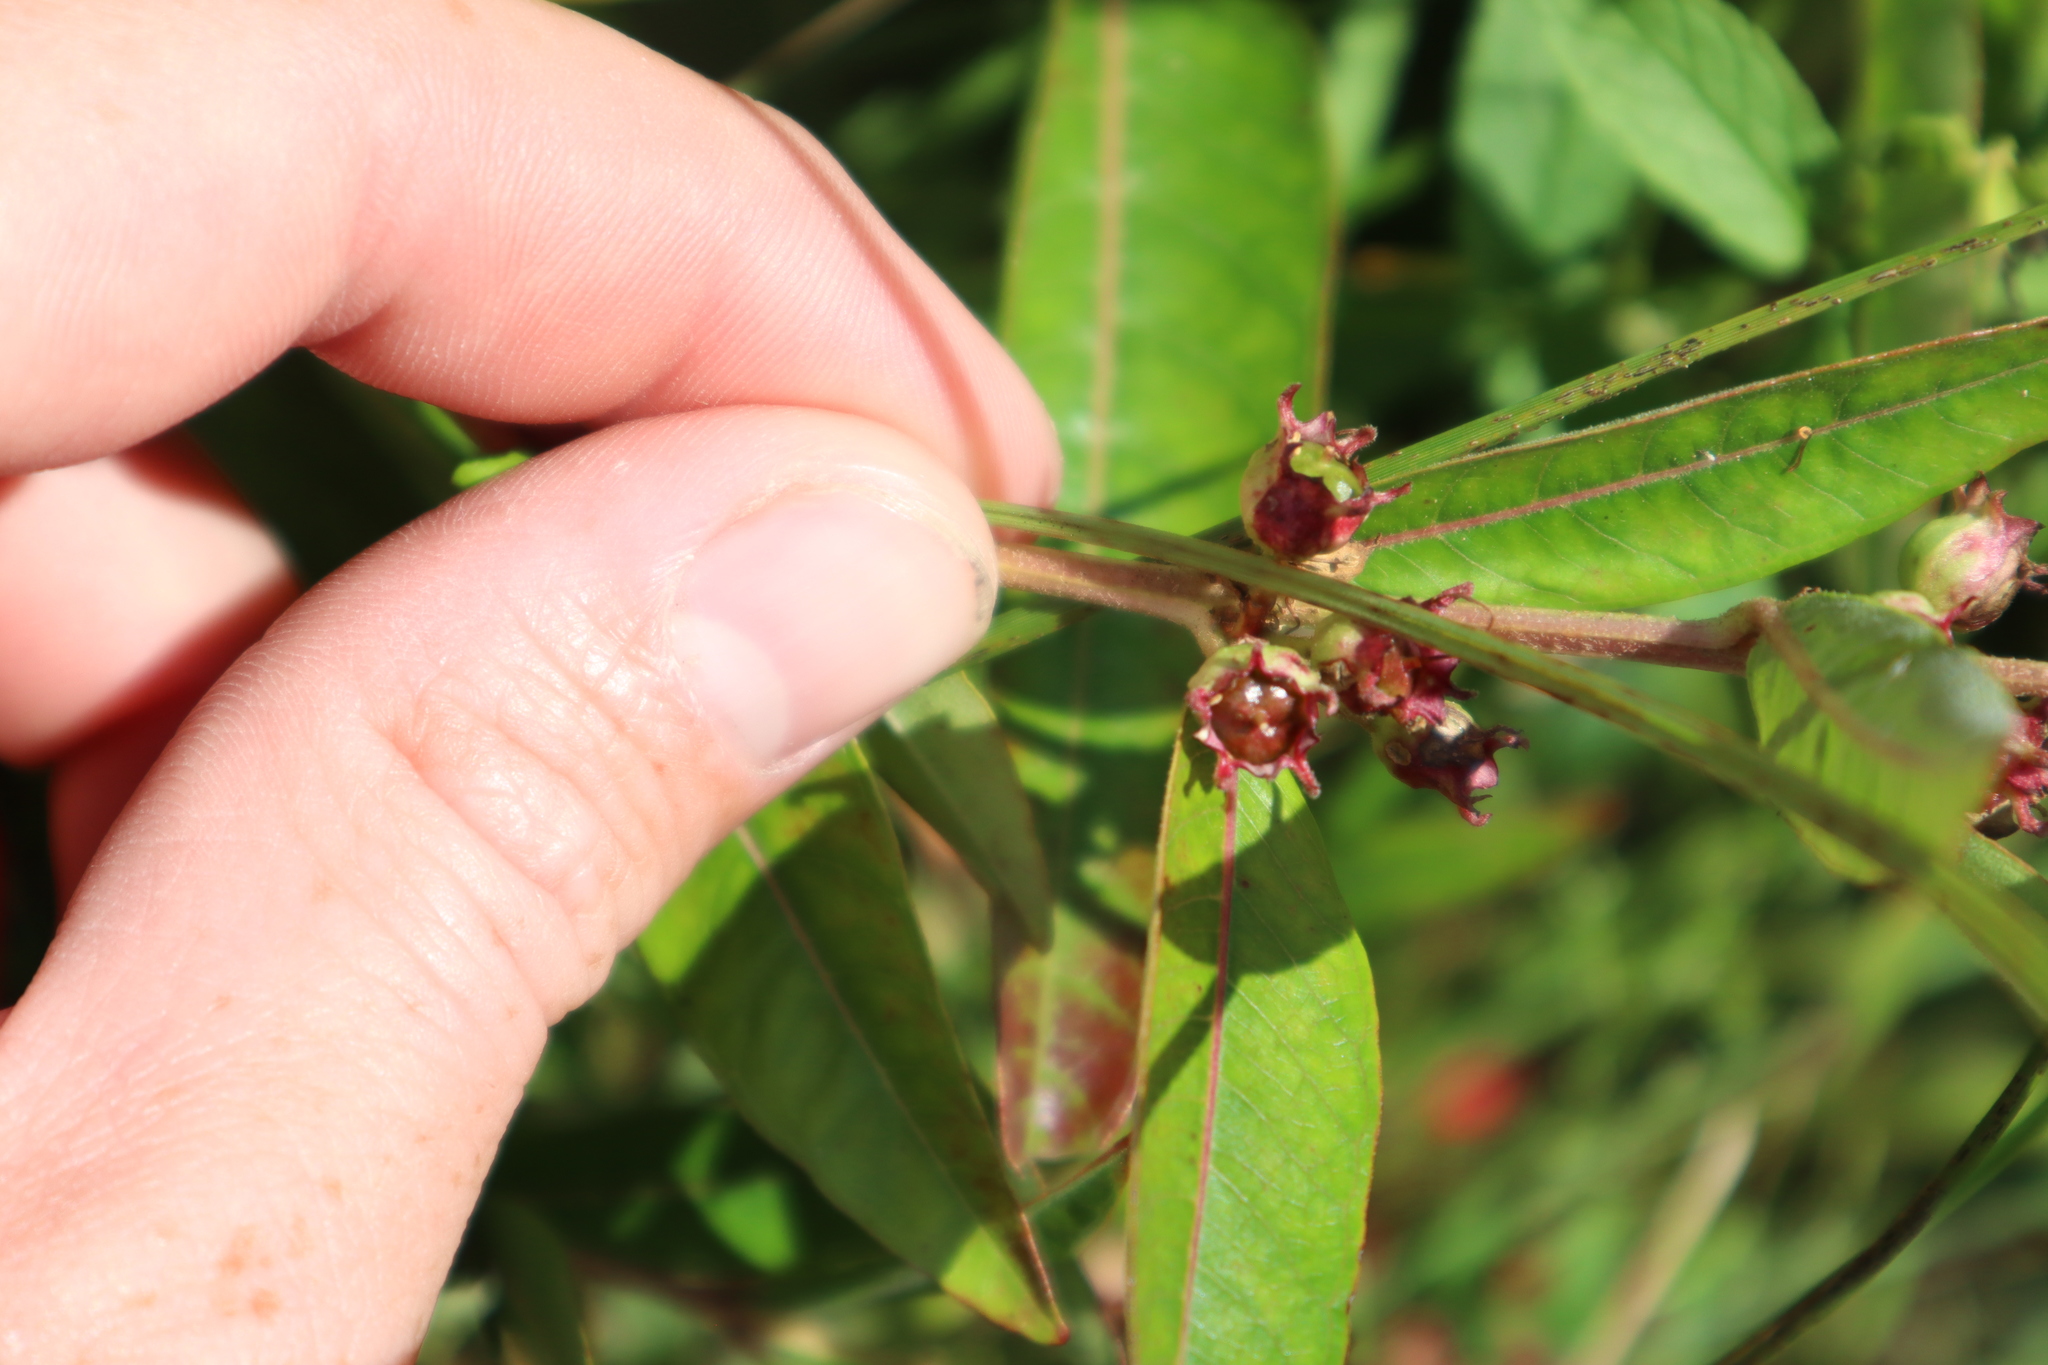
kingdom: Plantae
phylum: Tracheophyta
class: Magnoliopsida
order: Myrtales
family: Lythraceae
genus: Decodon
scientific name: Decodon verticillatus
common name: Hairy swamp loosestrife
